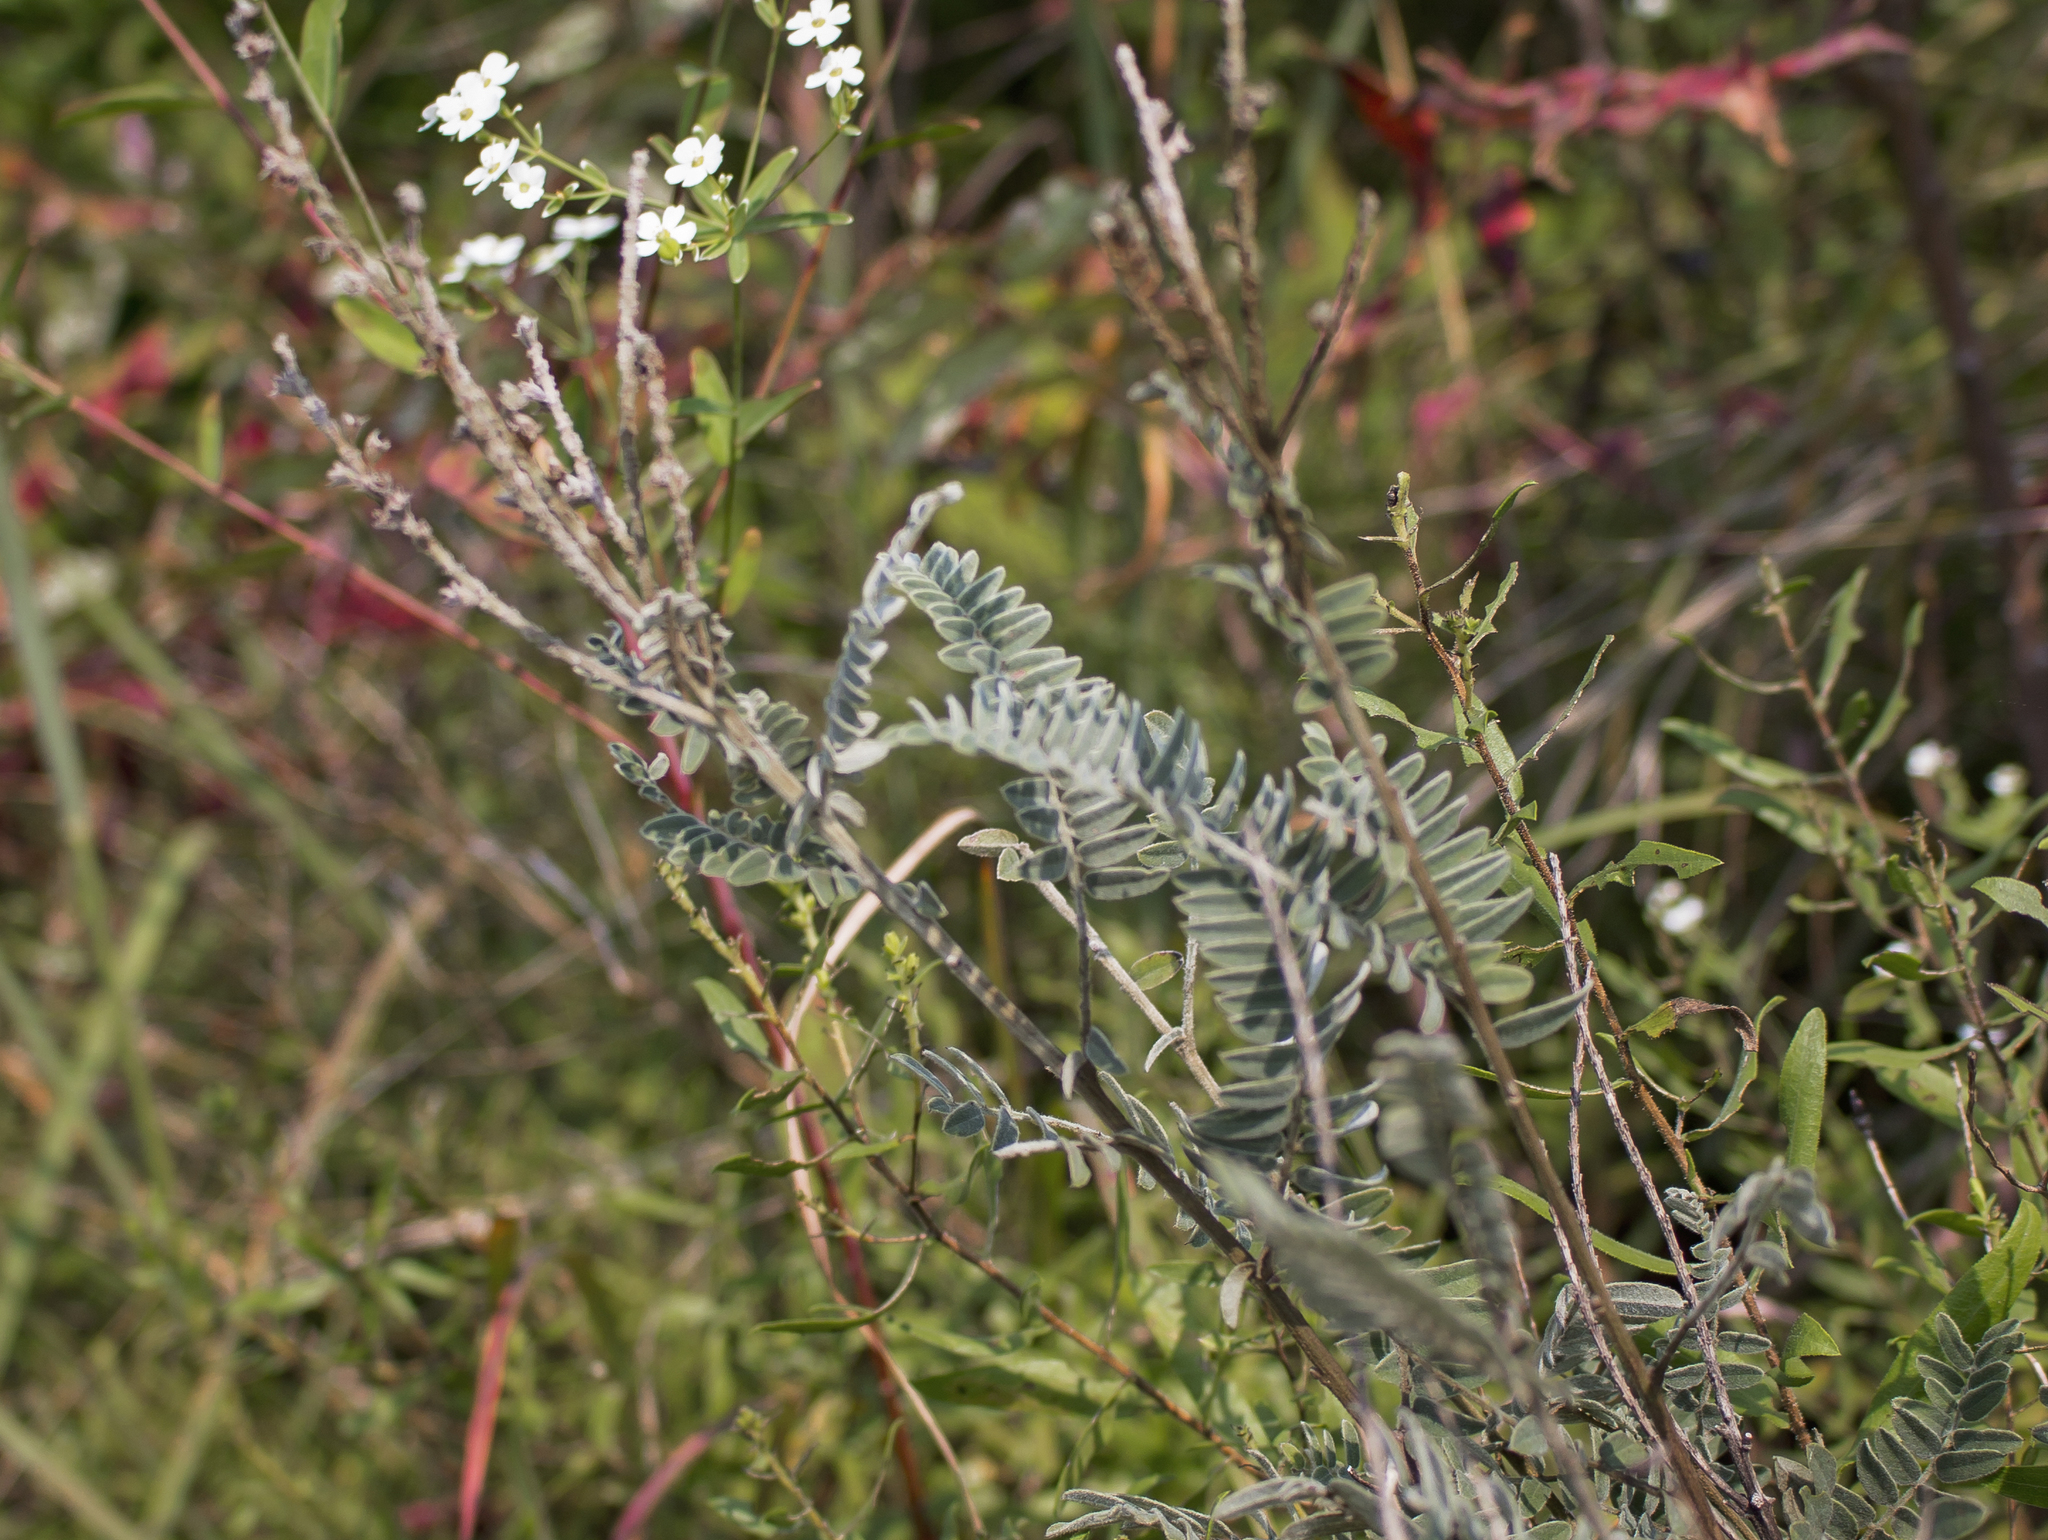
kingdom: Plantae
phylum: Tracheophyta
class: Magnoliopsida
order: Fabales
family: Fabaceae
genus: Amorpha
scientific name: Amorpha canescens
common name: Leadplant
